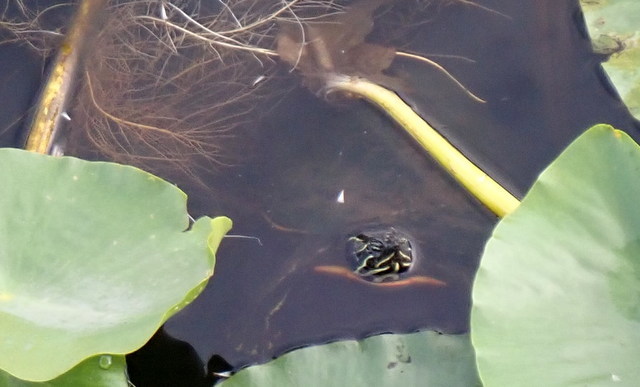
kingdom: Animalia
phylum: Chordata
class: Testudines
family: Emydidae
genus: Pseudemys
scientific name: Pseudemys nelsoni
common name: Florida red-bellied turtle
